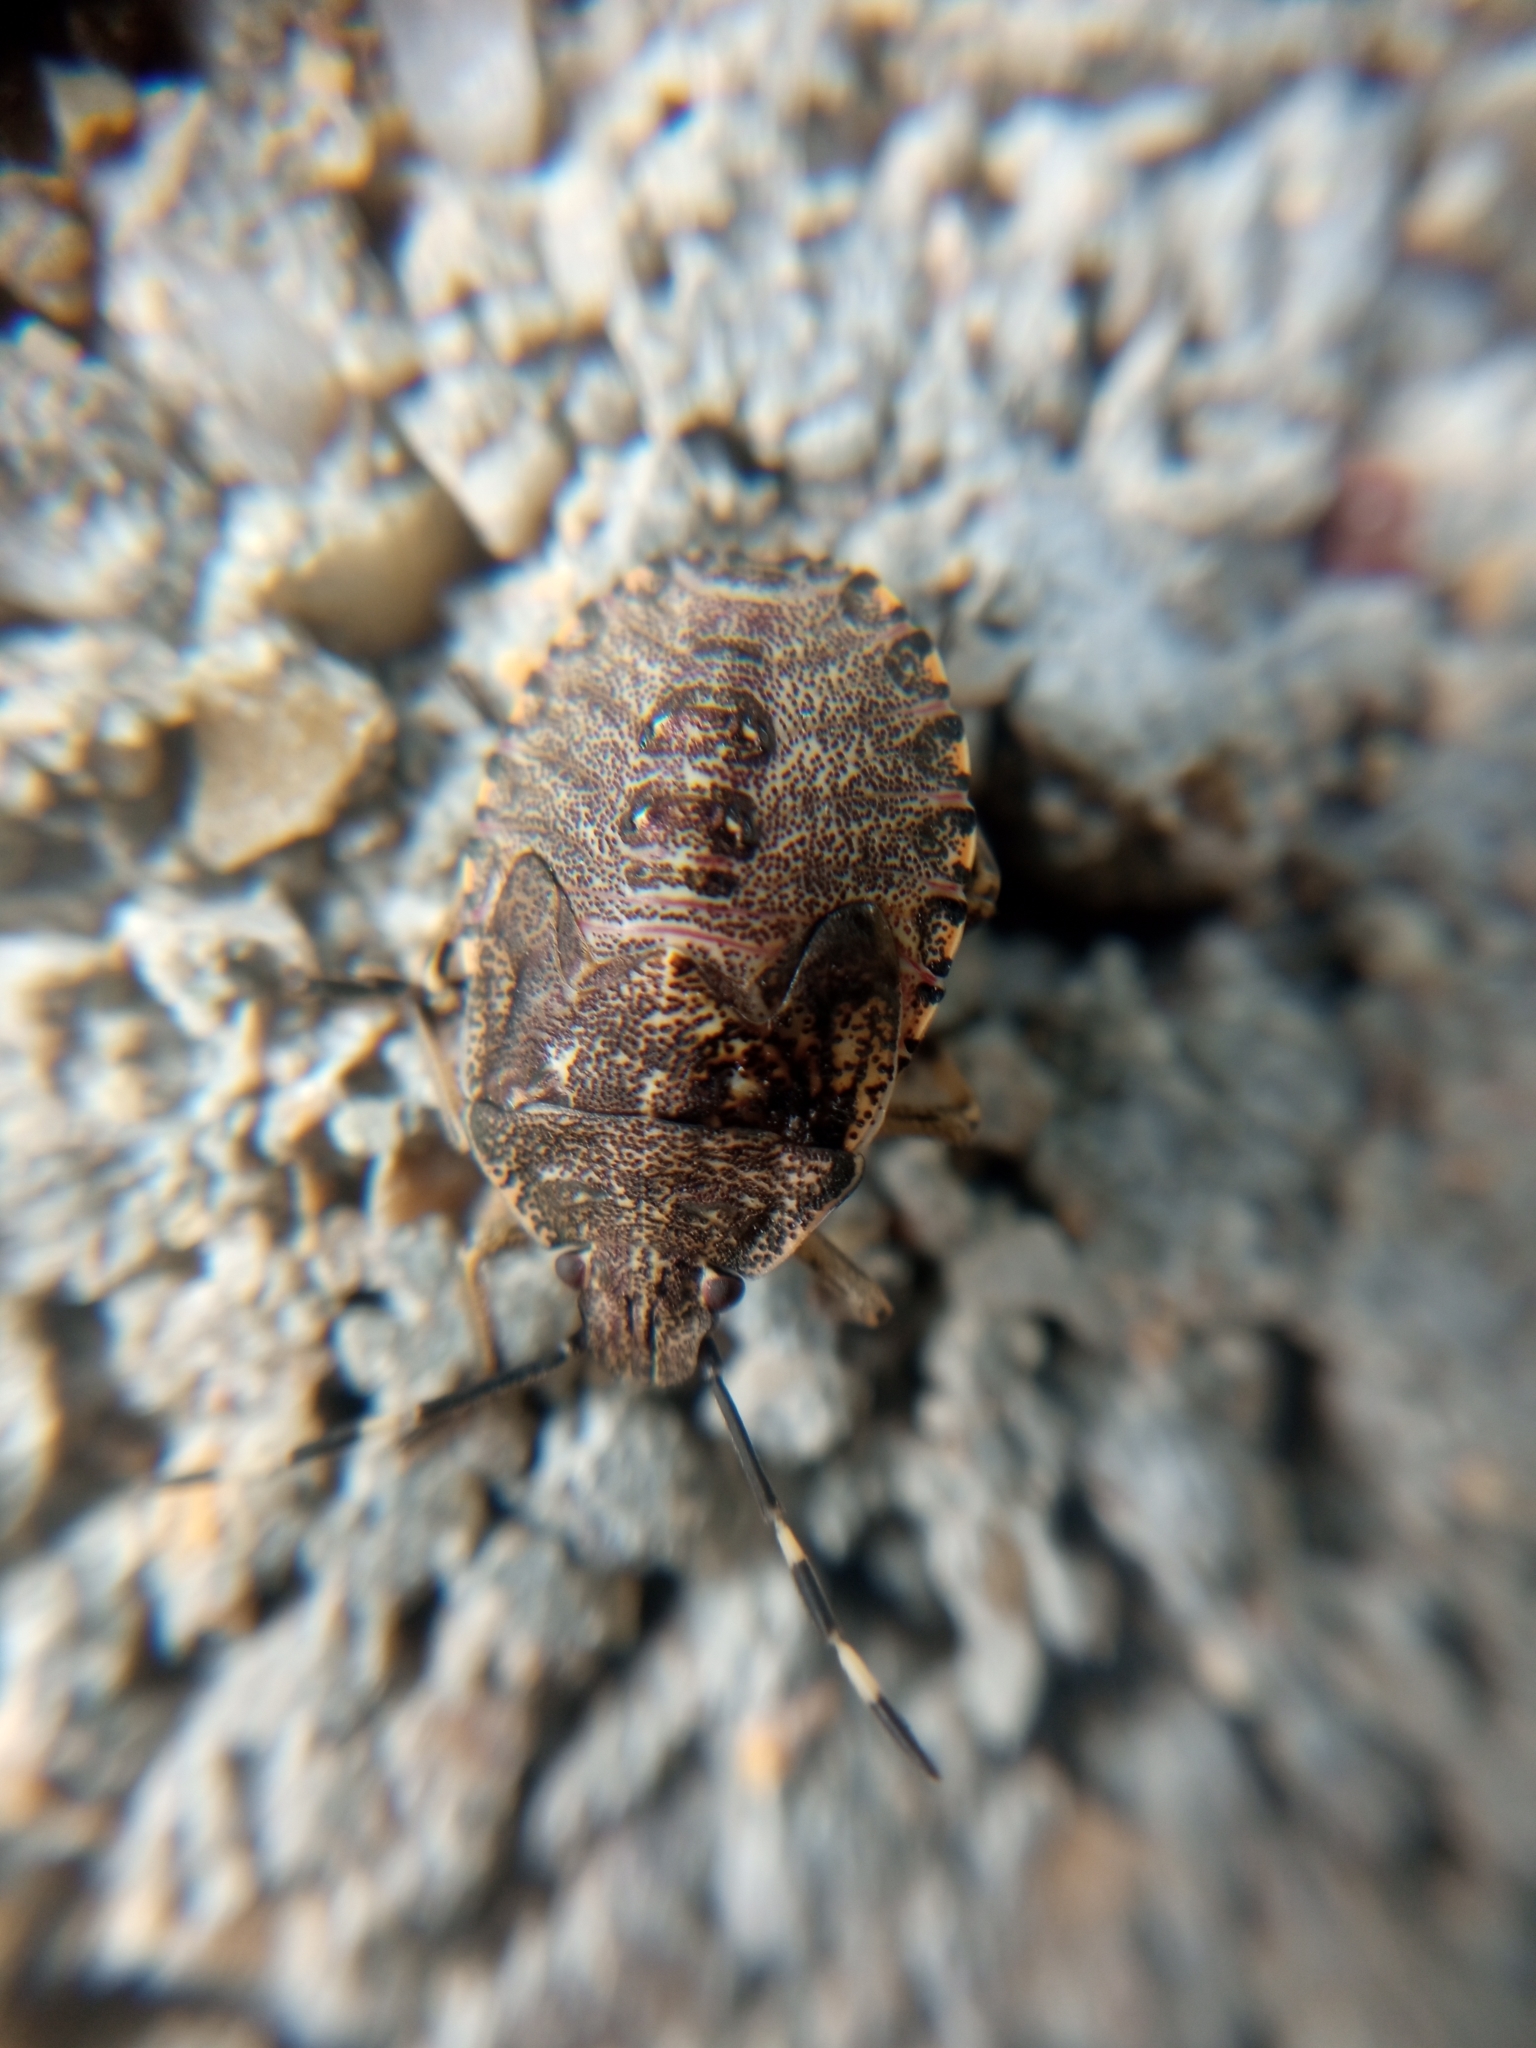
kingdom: Animalia
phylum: Arthropoda
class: Insecta
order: Hemiptera
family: Pentatomidae
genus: Rhaphigaster
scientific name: Rhaphigaster nebulosa
